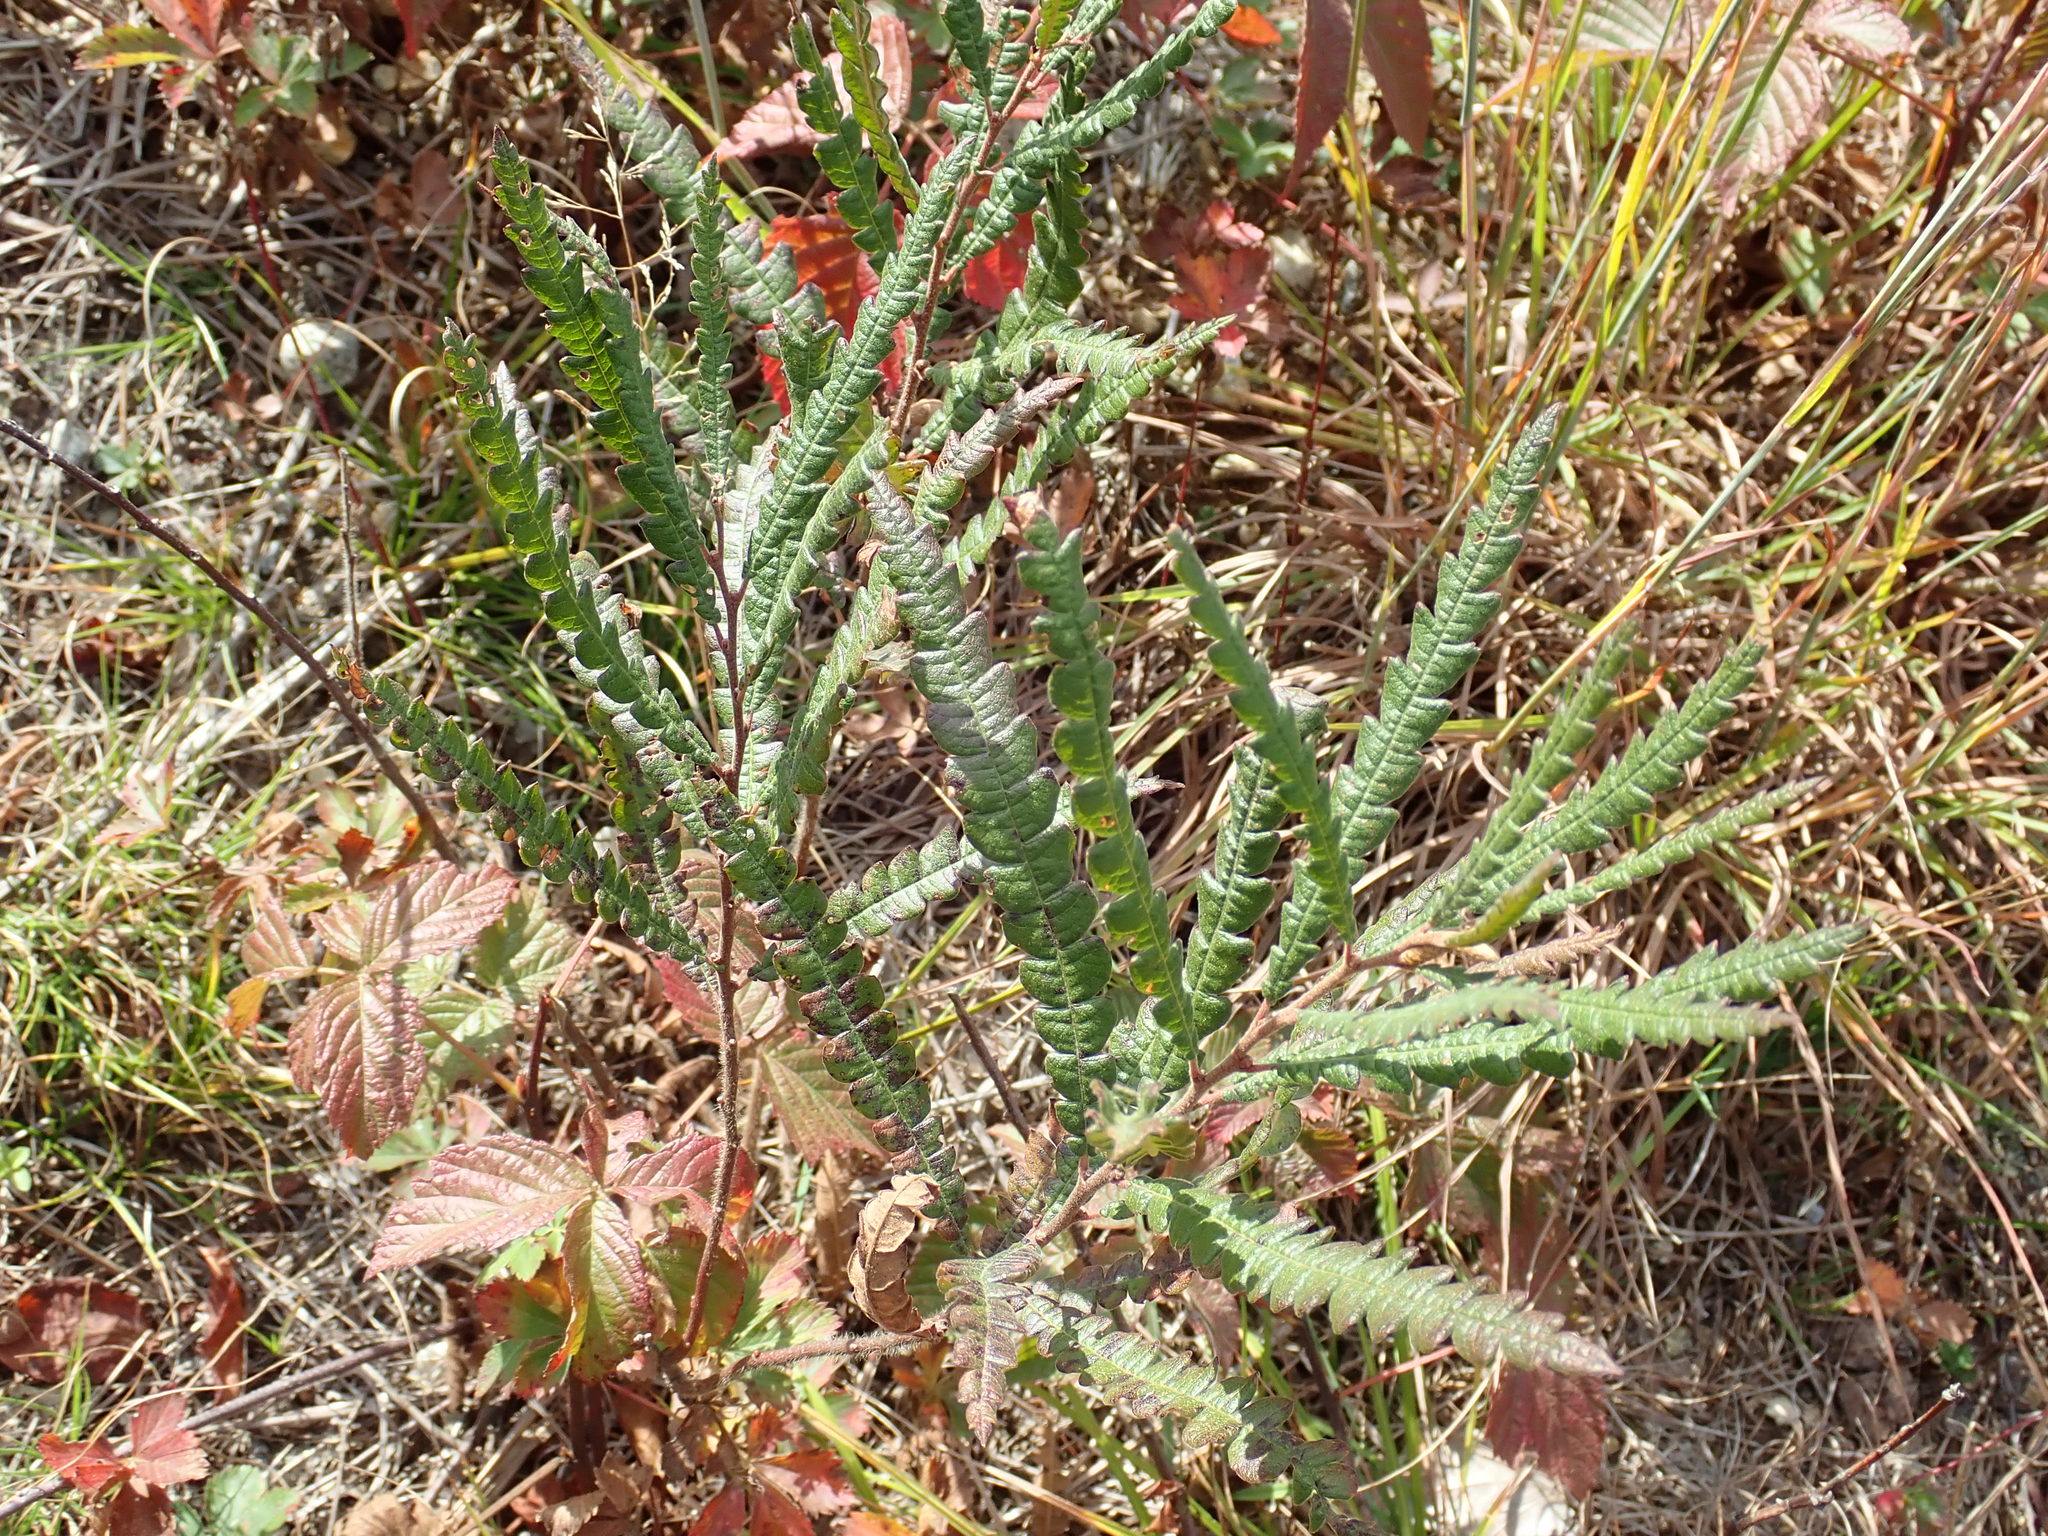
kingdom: Plantae
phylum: Tracheophyta
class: Magnoliopsida
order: Fagales
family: Myricaceae
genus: Comptonia
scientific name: Comptonia peregrina
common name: Sweet-fern
